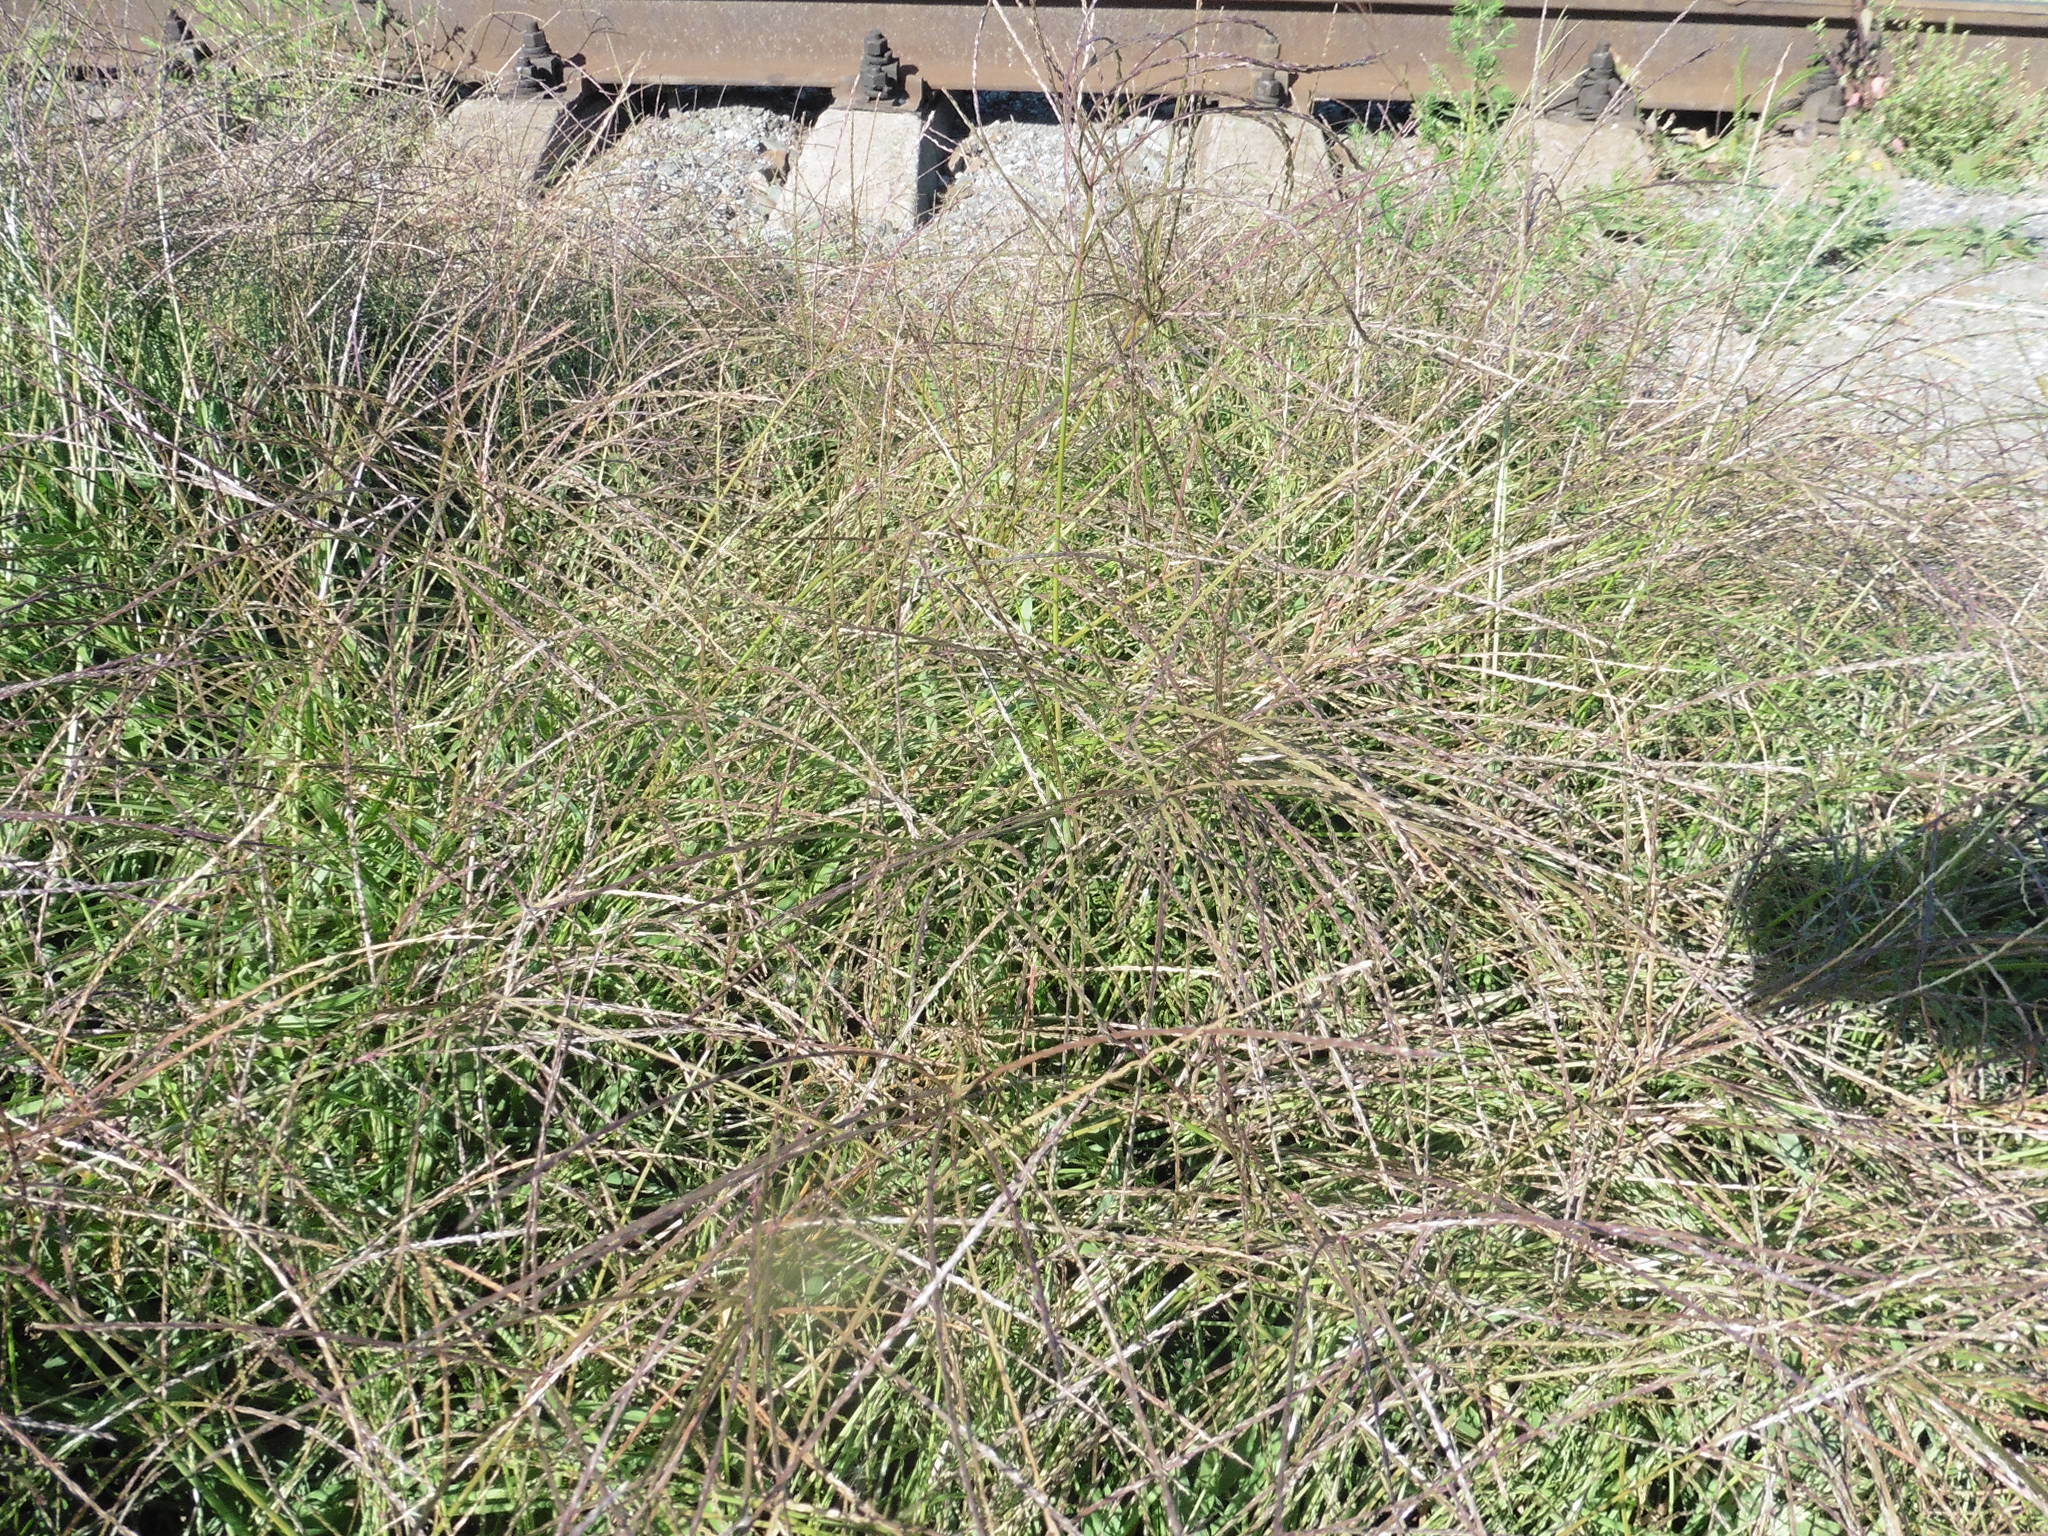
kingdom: Plantae
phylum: Tracheophyta
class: Liliopsida
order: Poales
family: Poaceae
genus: Digitaria
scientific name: Digitaria sanguinalis
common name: Hairy crabgrass
